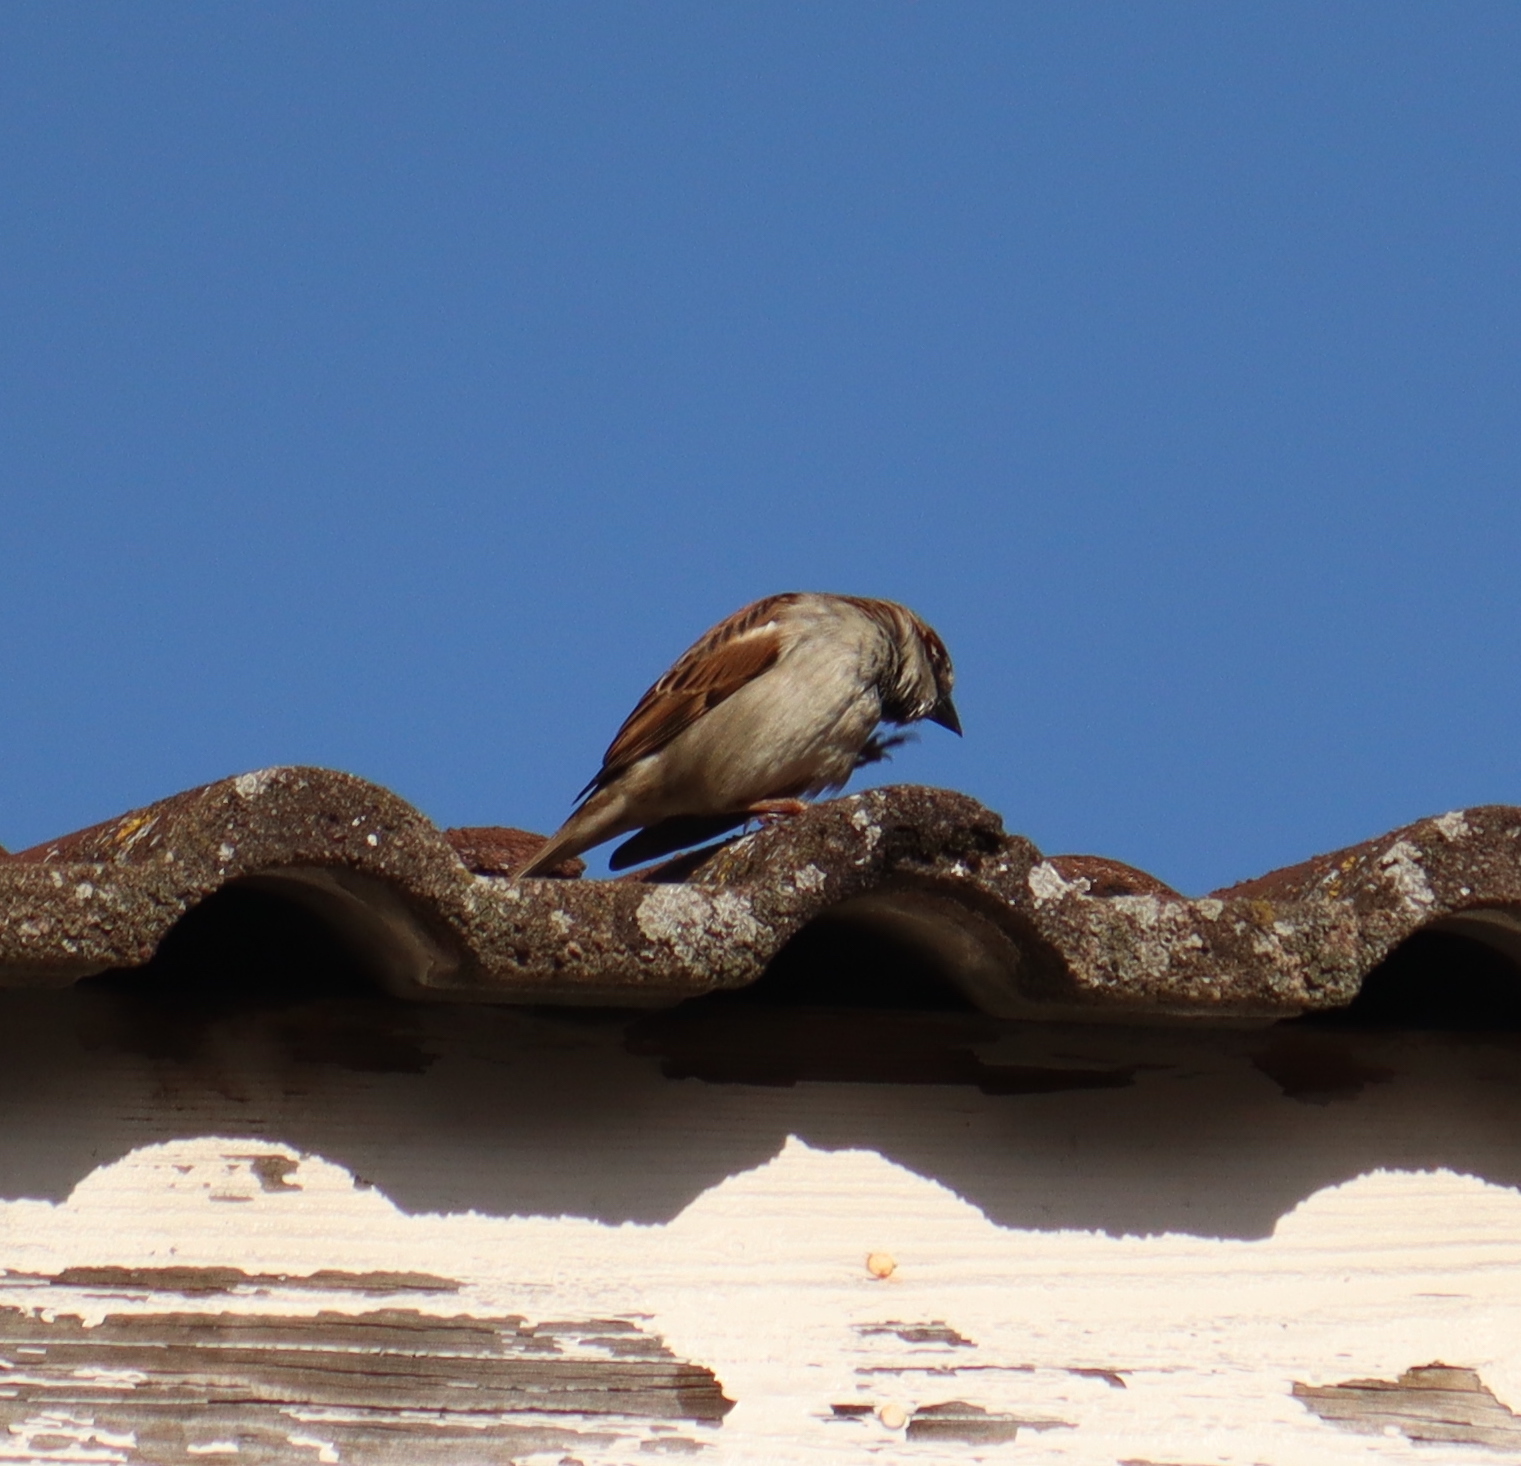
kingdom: Animalia
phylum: Chordata
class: Aves
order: Passeriformes
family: Passeridae
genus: Passer
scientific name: Passer domesticus
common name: House sparrow
